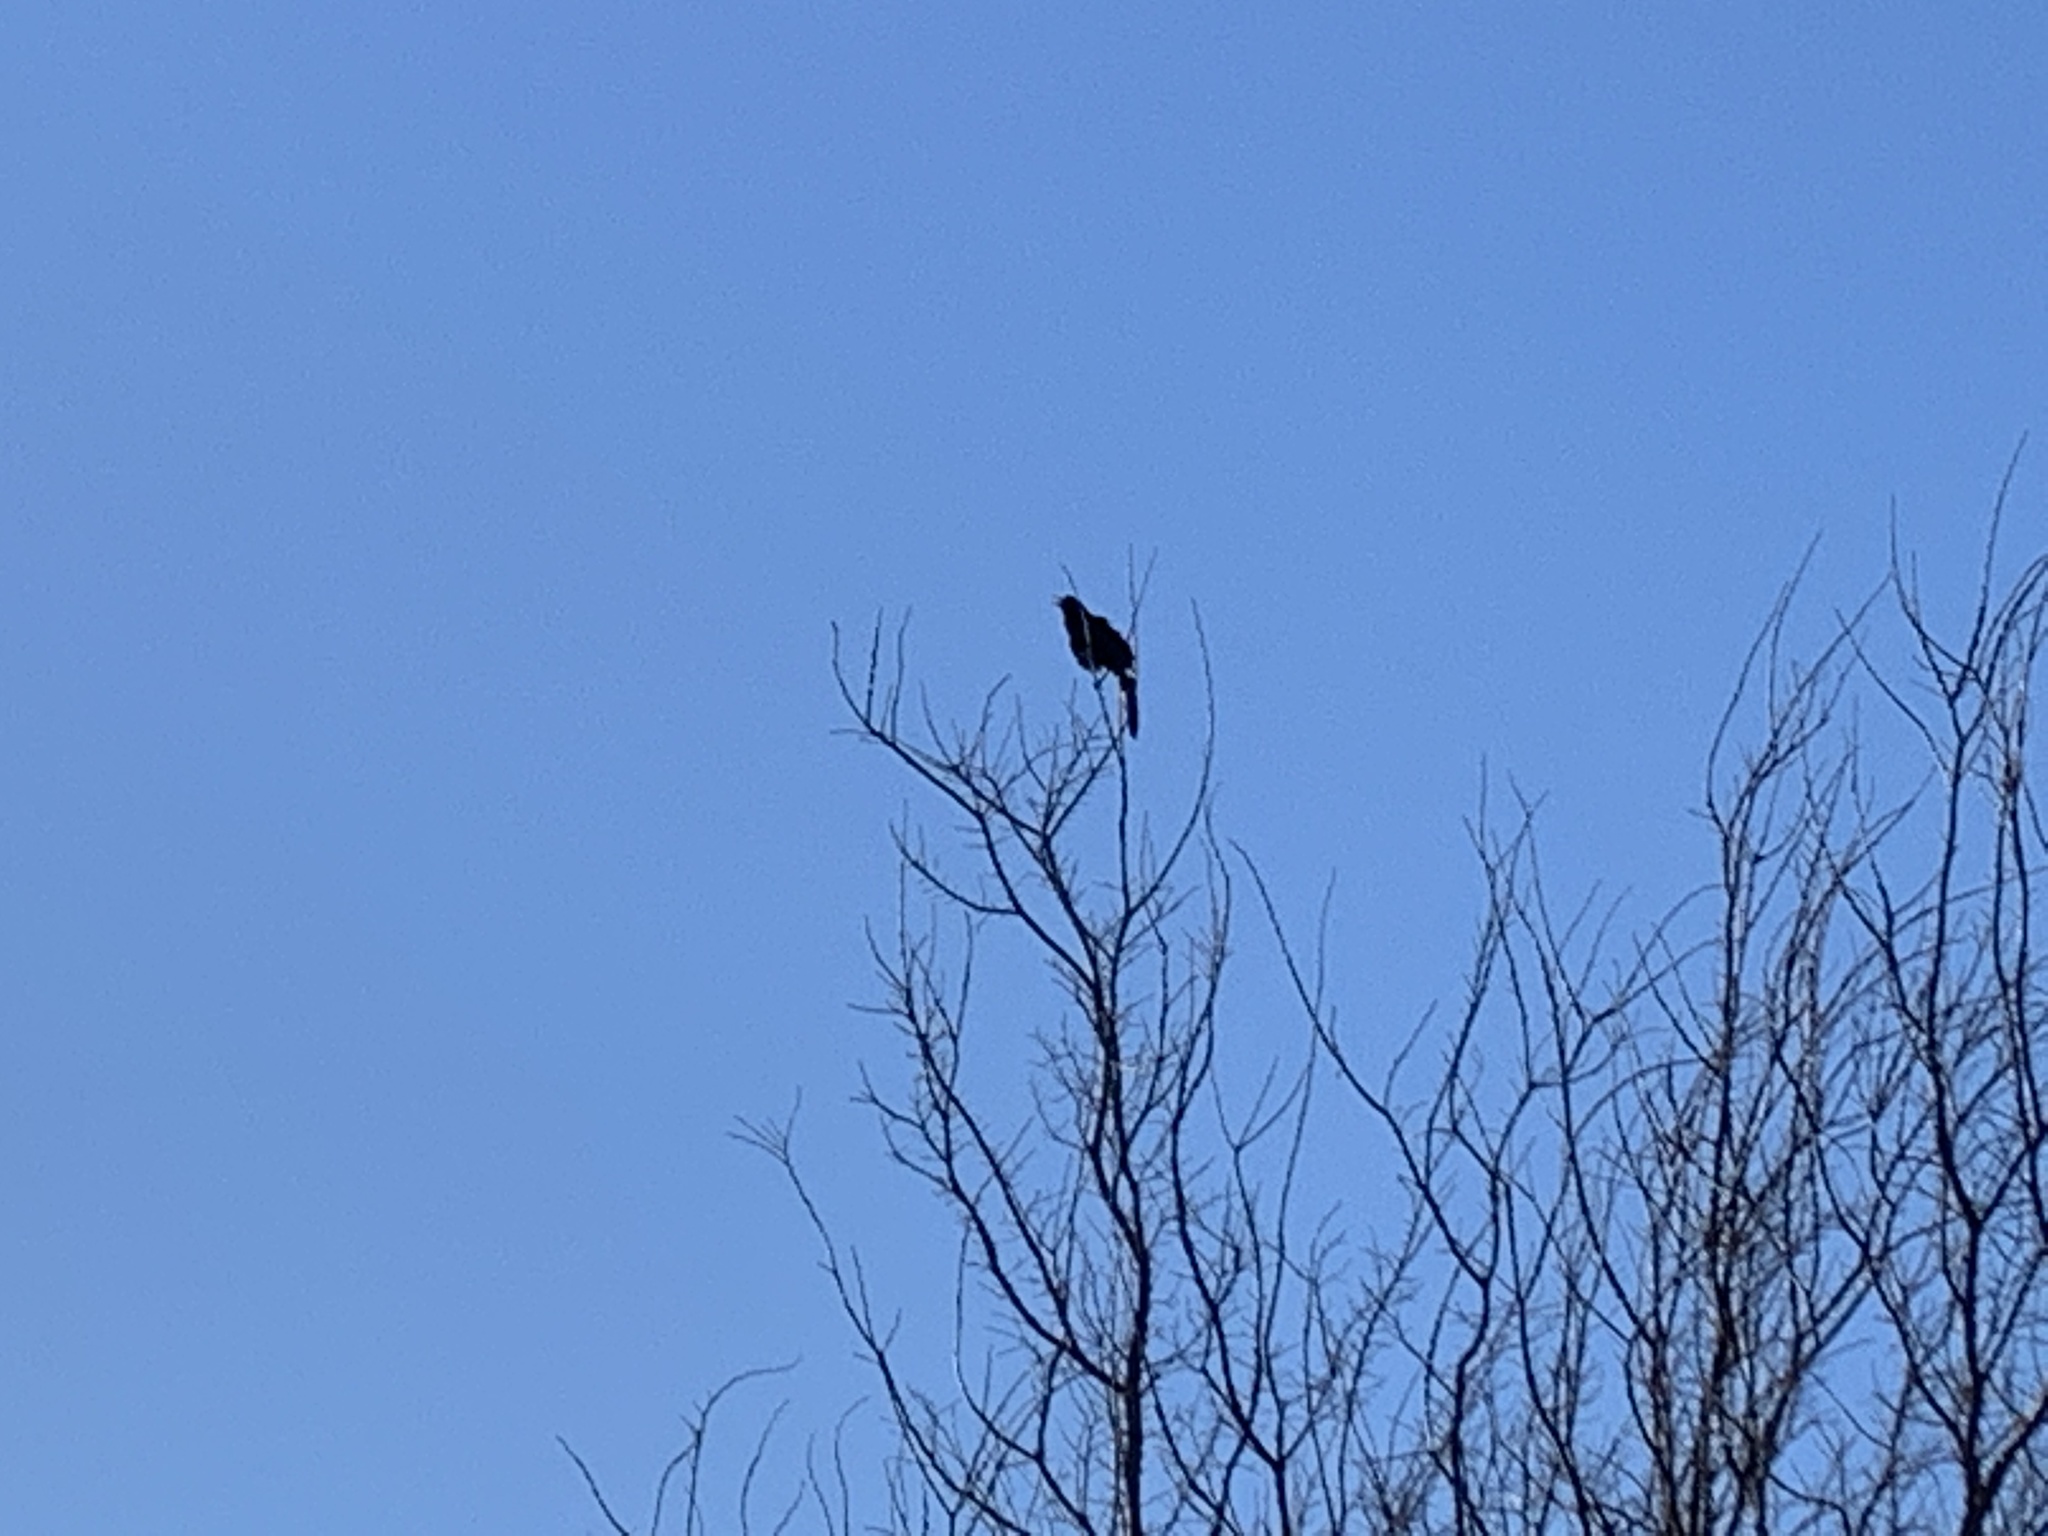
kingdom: Animalia
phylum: Chordata
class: Aves
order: Passeriformes
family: Icteridae
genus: Quiscalus
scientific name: Quiscalus mexicanus
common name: Great-tailed grackle
